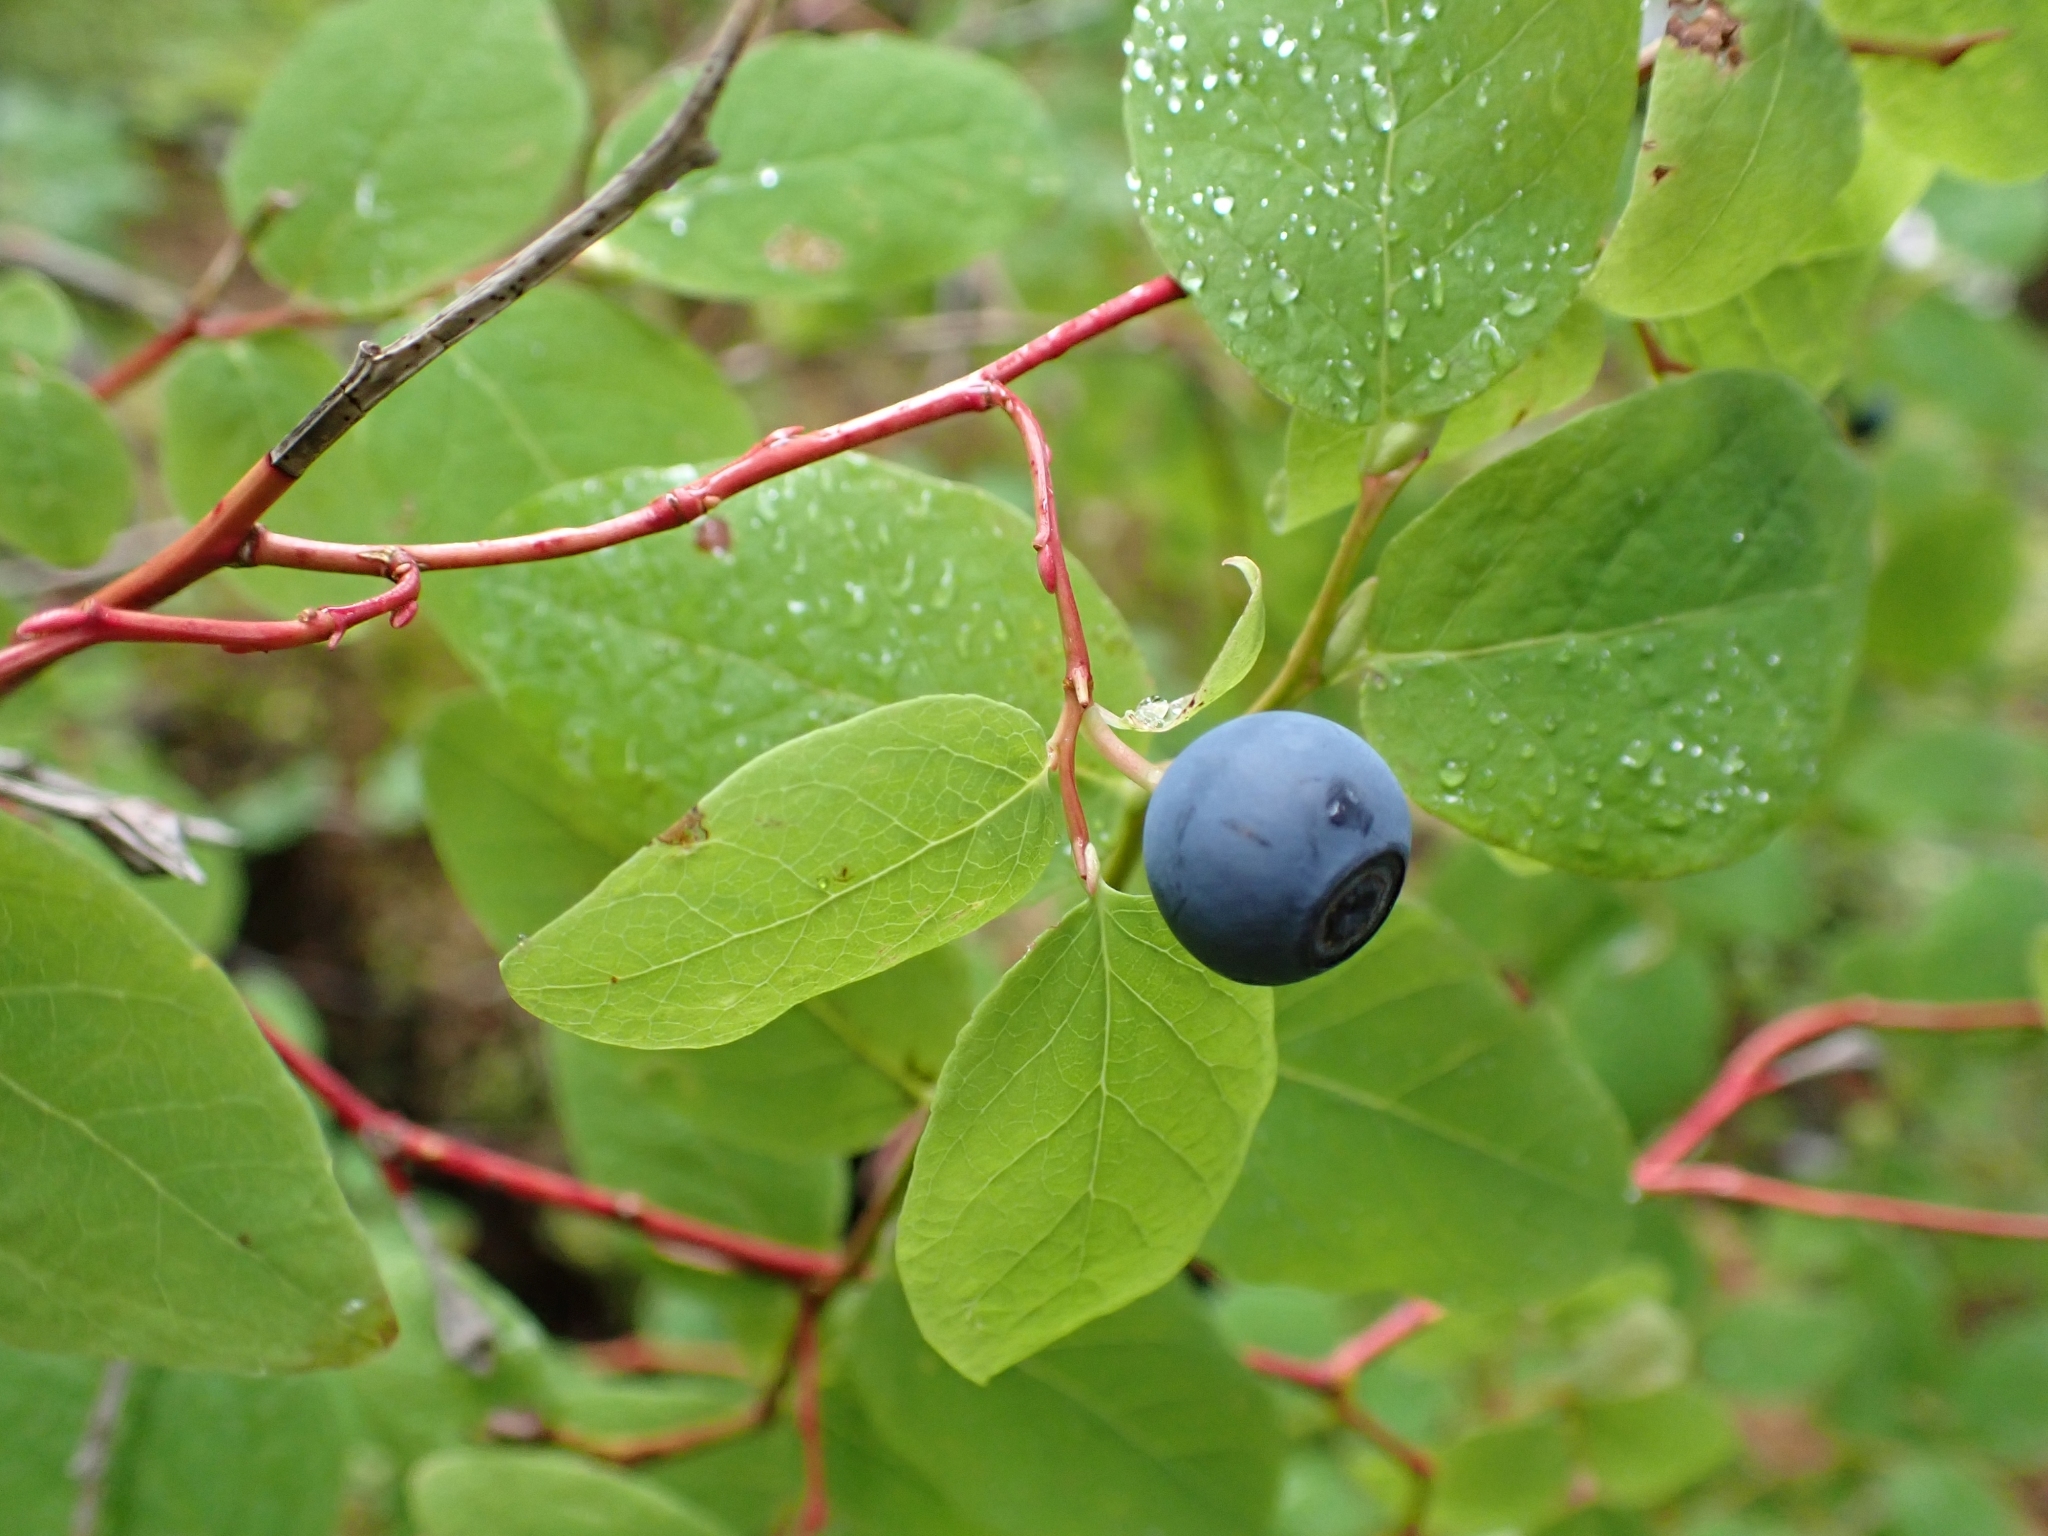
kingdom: Plantae
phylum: Tracheophyta
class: Magnoliopsida
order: Ericales
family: Ericaceae
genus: Vaccinium
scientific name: Vaccinium ovalifolium
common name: Early blueberry
